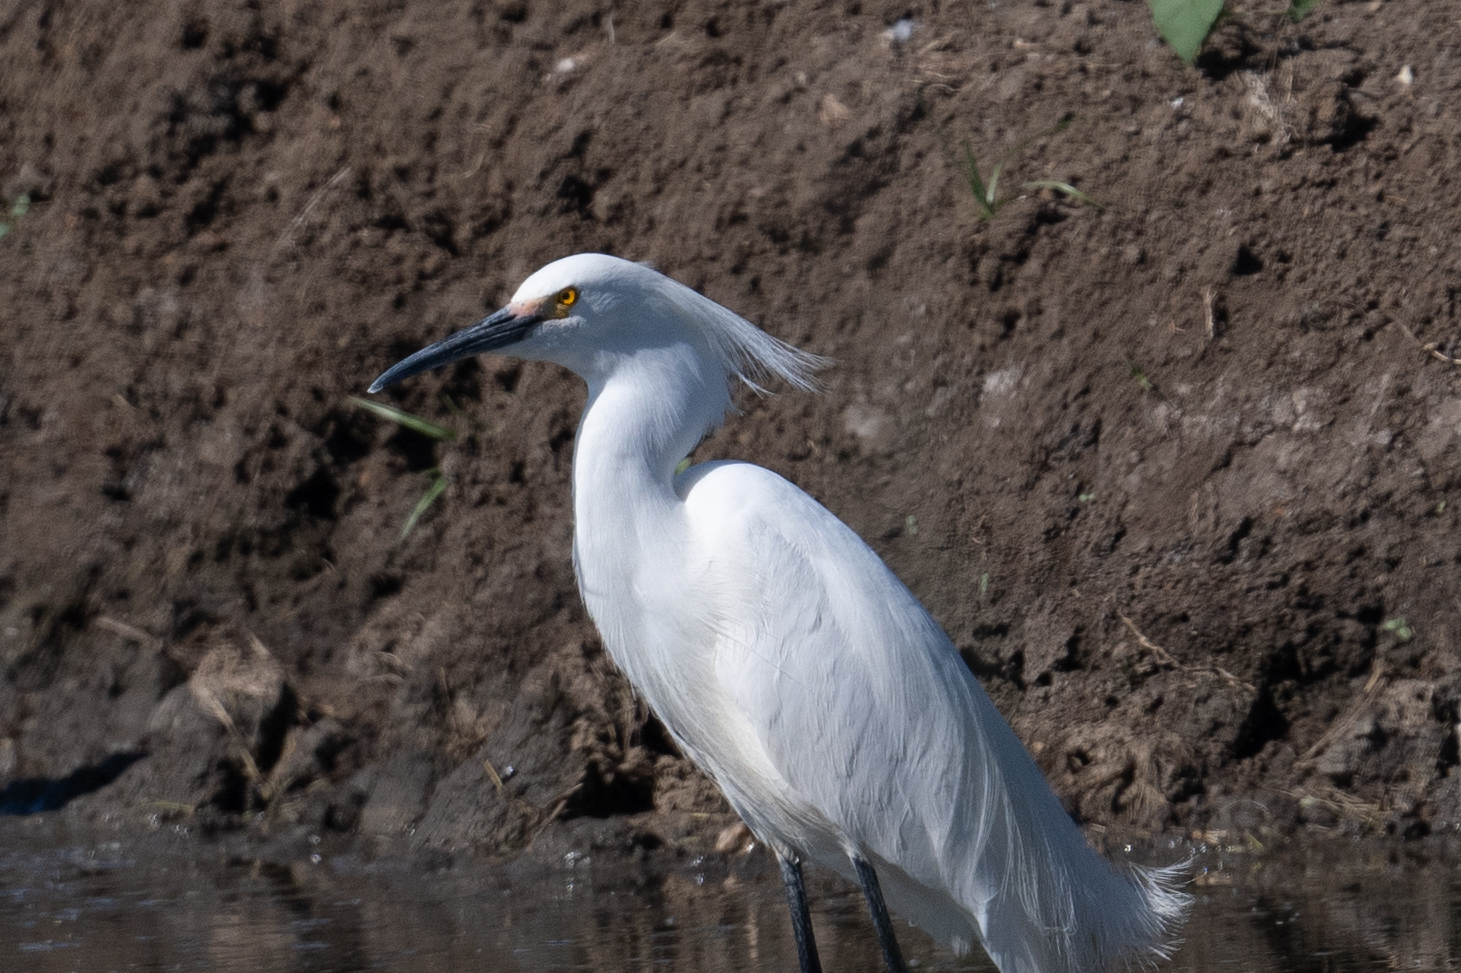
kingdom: Animalia
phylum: Chordata
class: Aves
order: Pelecaniformes
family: Ardeidae
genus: Egretta
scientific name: Egretta thula
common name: Snowy egret
